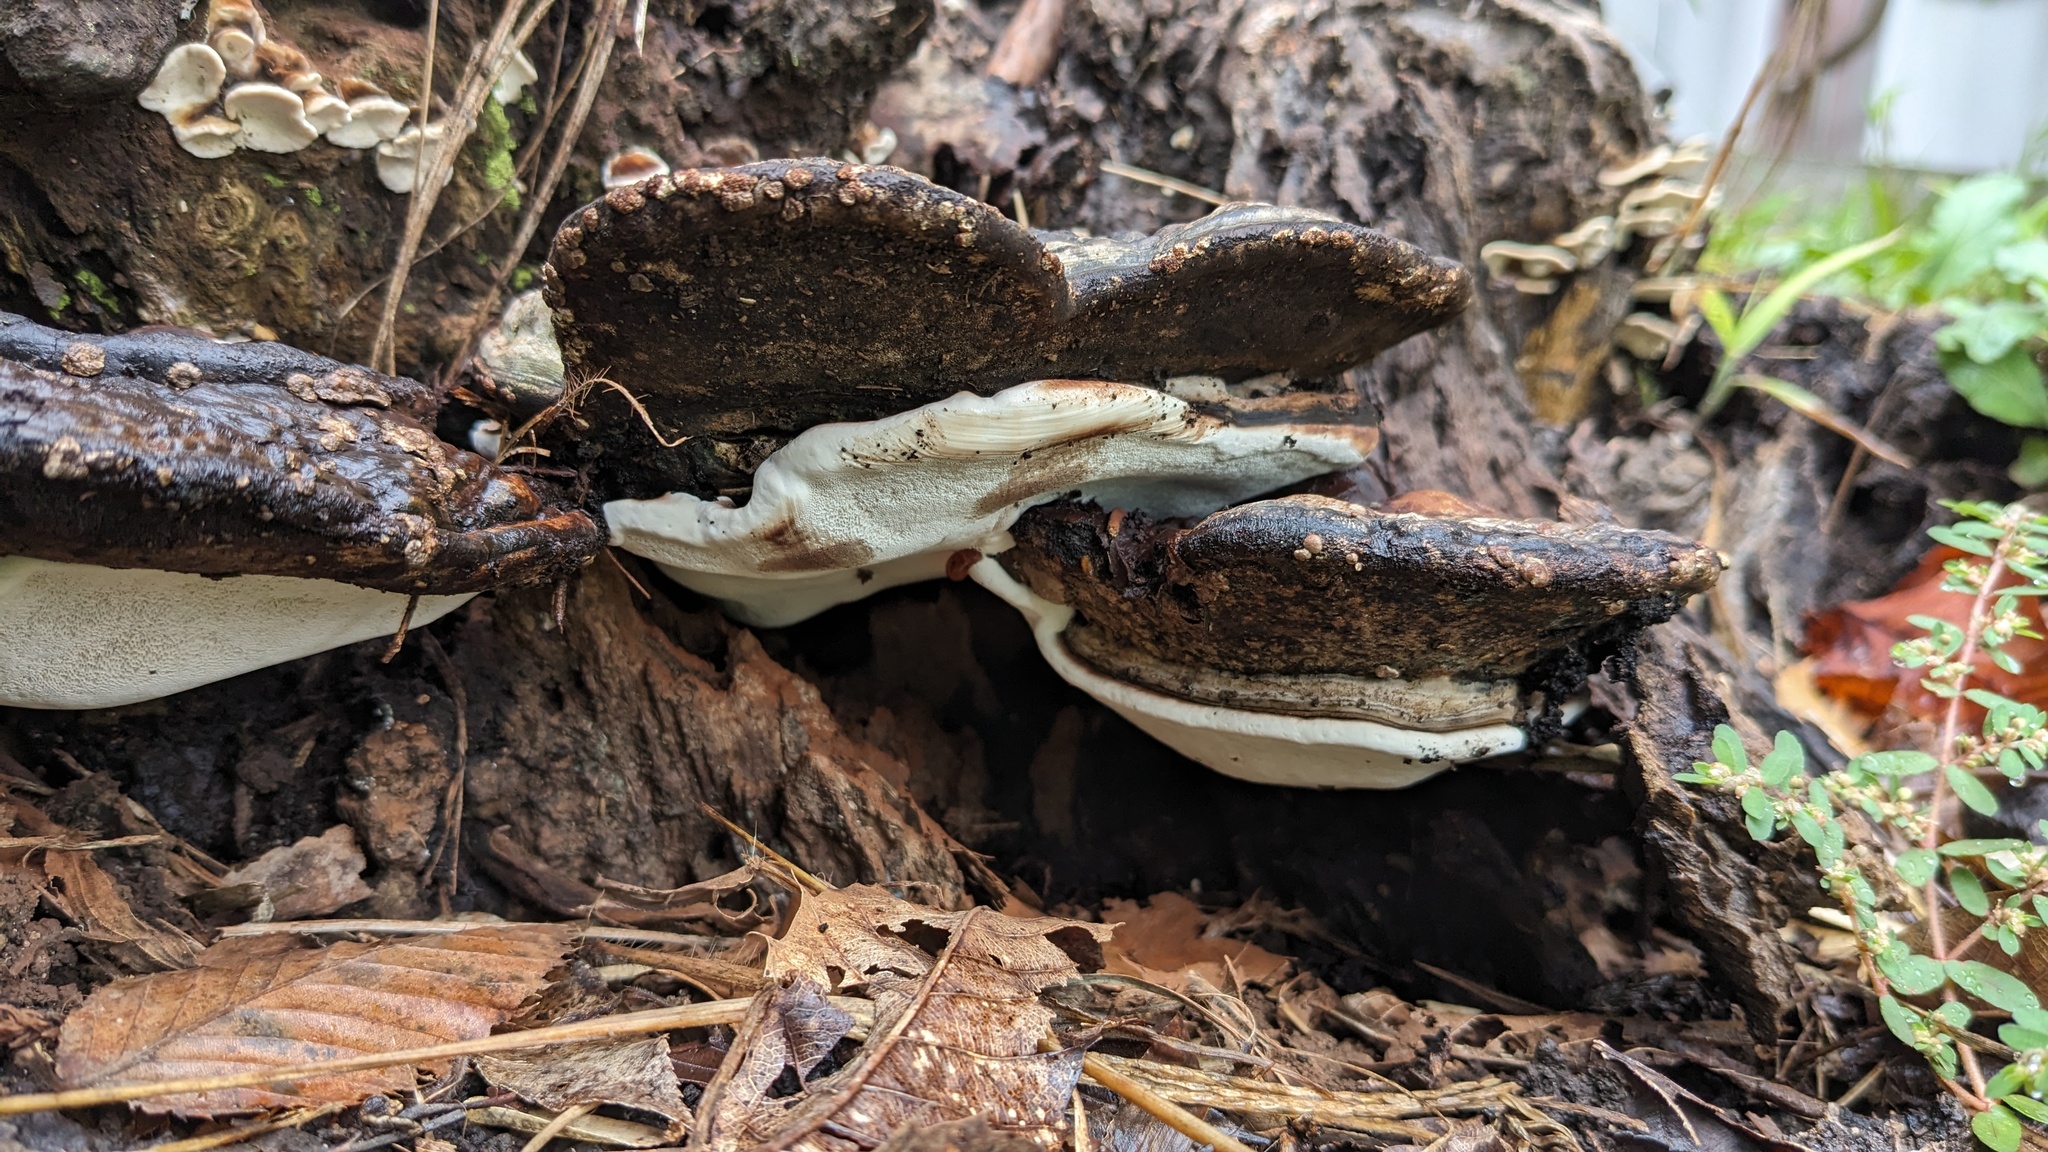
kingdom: Fungi
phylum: Basidiomycota
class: Agaricomycetes
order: Polyporales
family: Polyporaceae
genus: Ganoderma
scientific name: Ganoderma applanatum
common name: Artist's bracket
